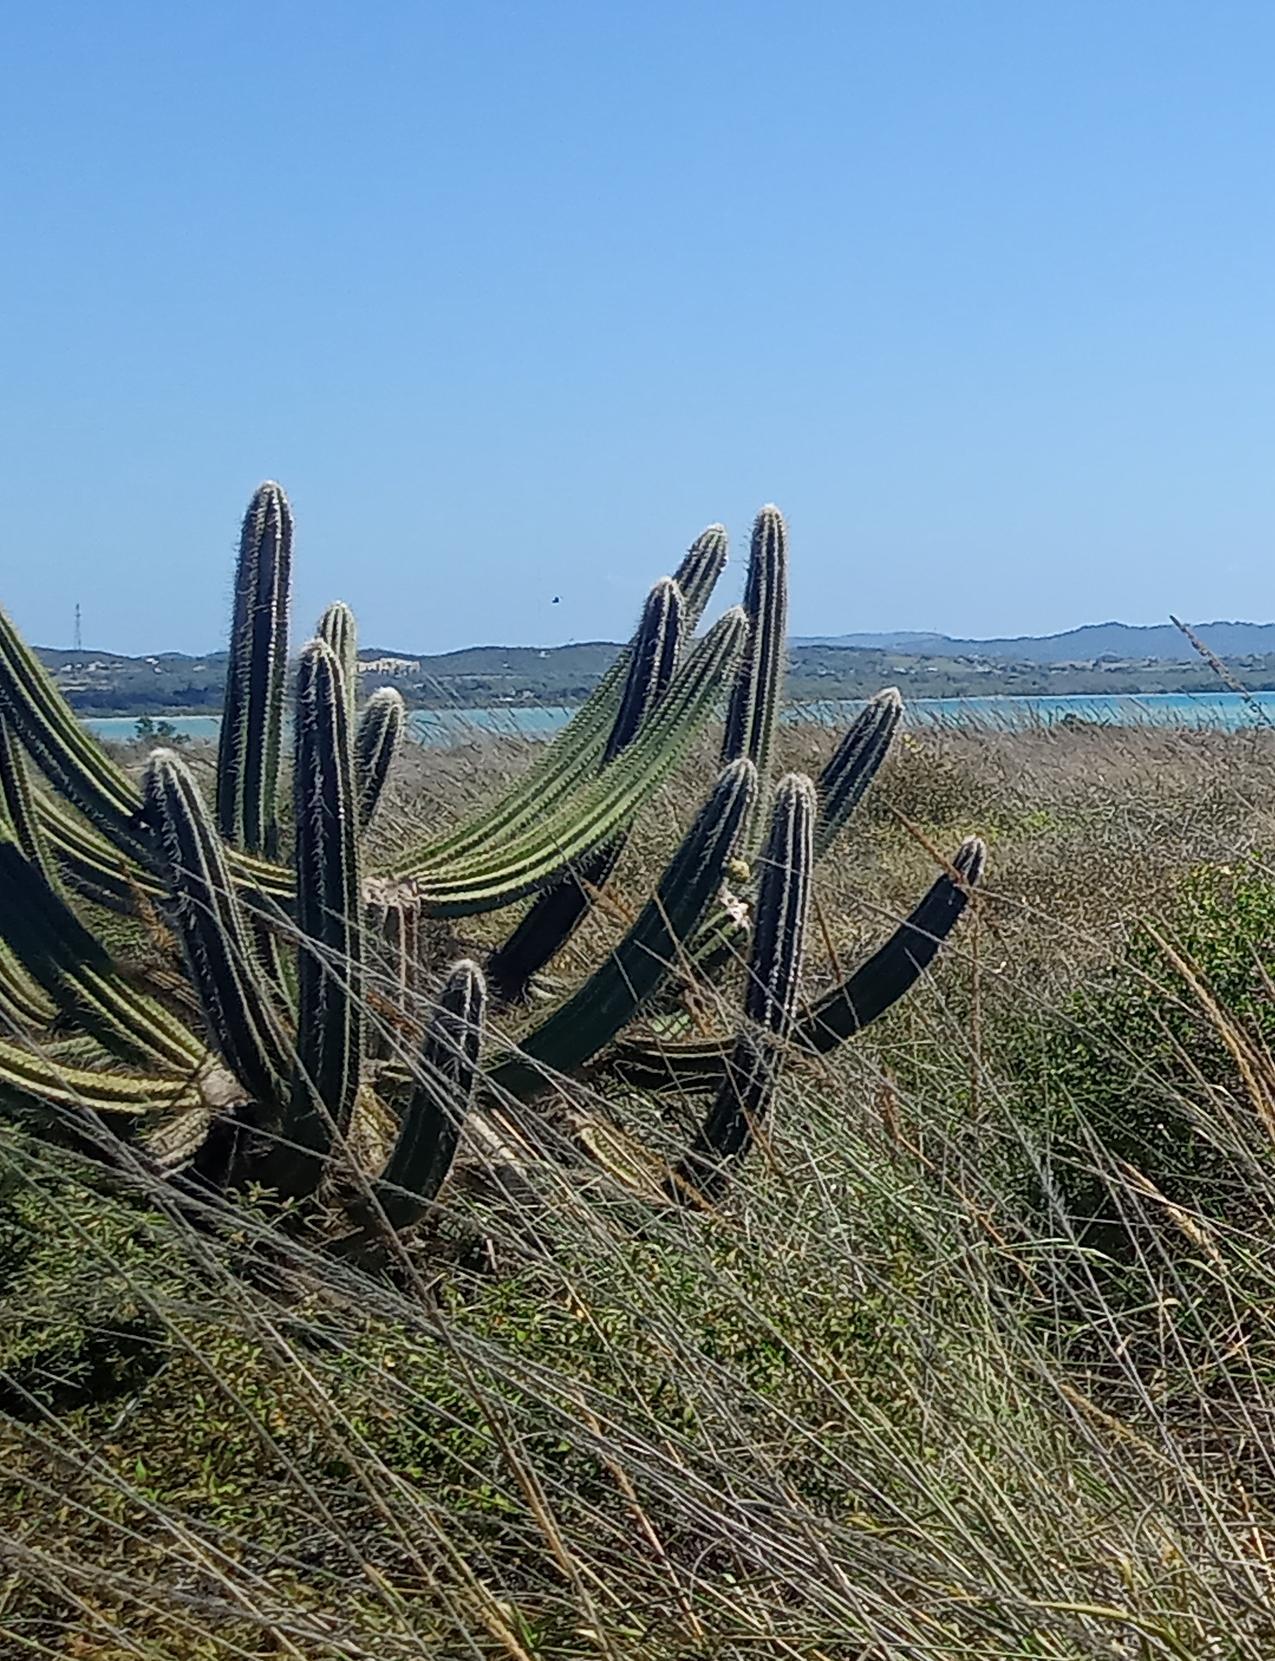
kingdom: Plantae
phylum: Tracheophyta
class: Magnoliopsida
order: Caryophyllales
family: Cactaceae
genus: Pilosocereus
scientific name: Pilosocereus armatus
